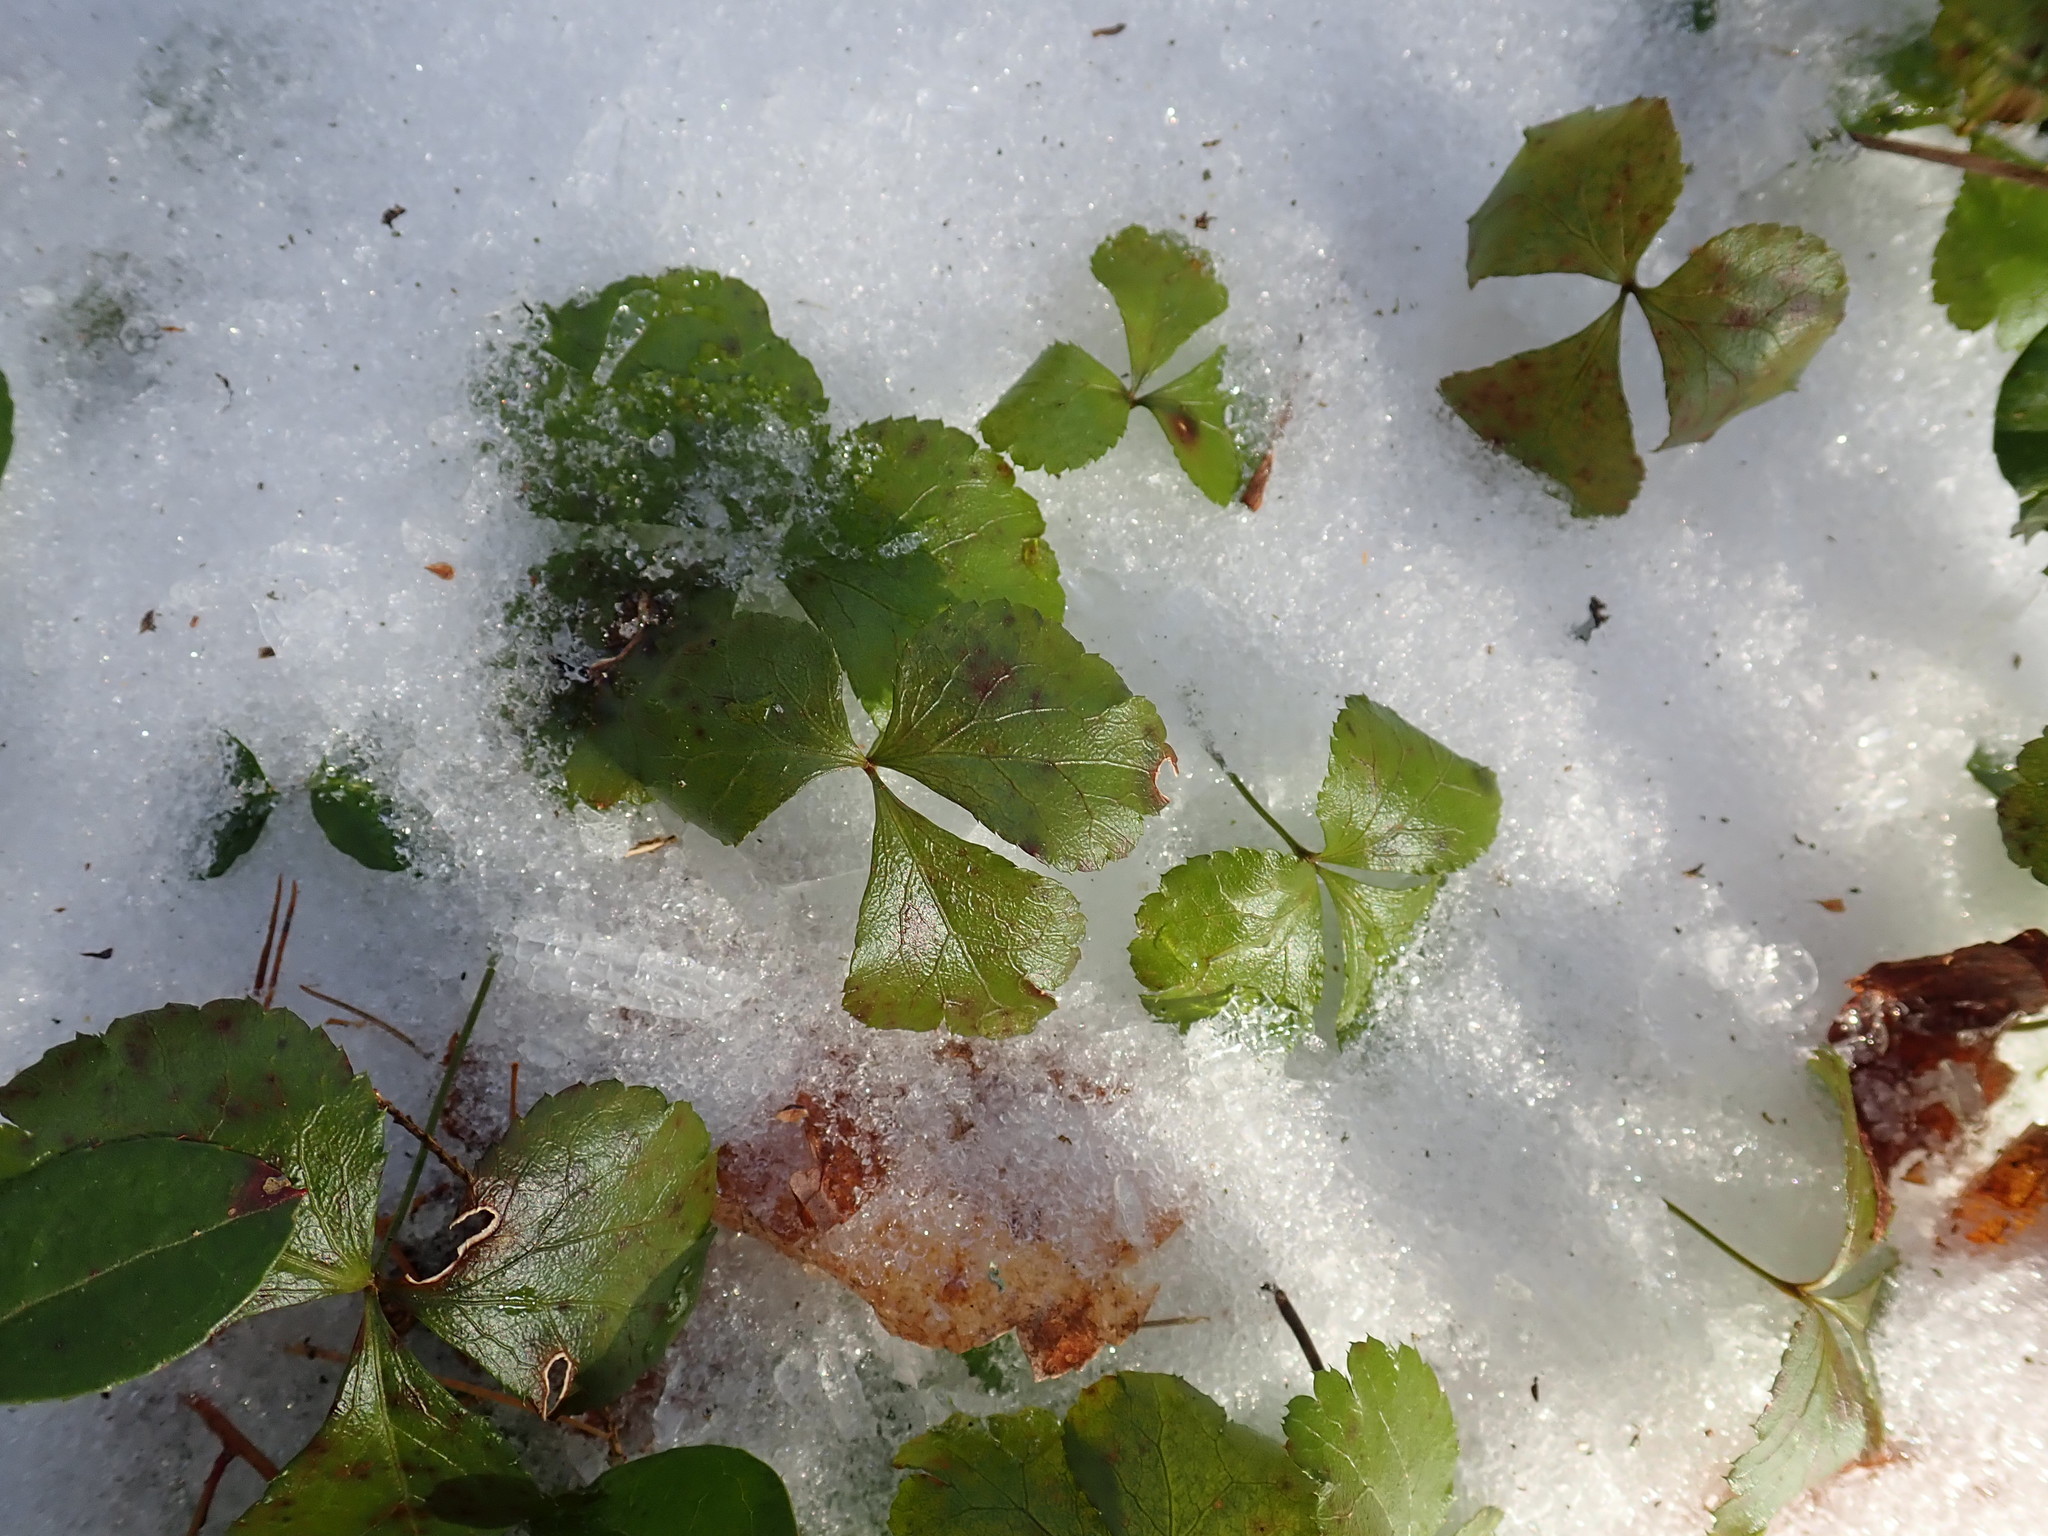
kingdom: Plantae
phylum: Tracheophyta
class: Magnoliopsida
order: Ranunculales
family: Ranunculaceae
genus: Coptis
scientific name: Coptis trifolia
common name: Canker-root
